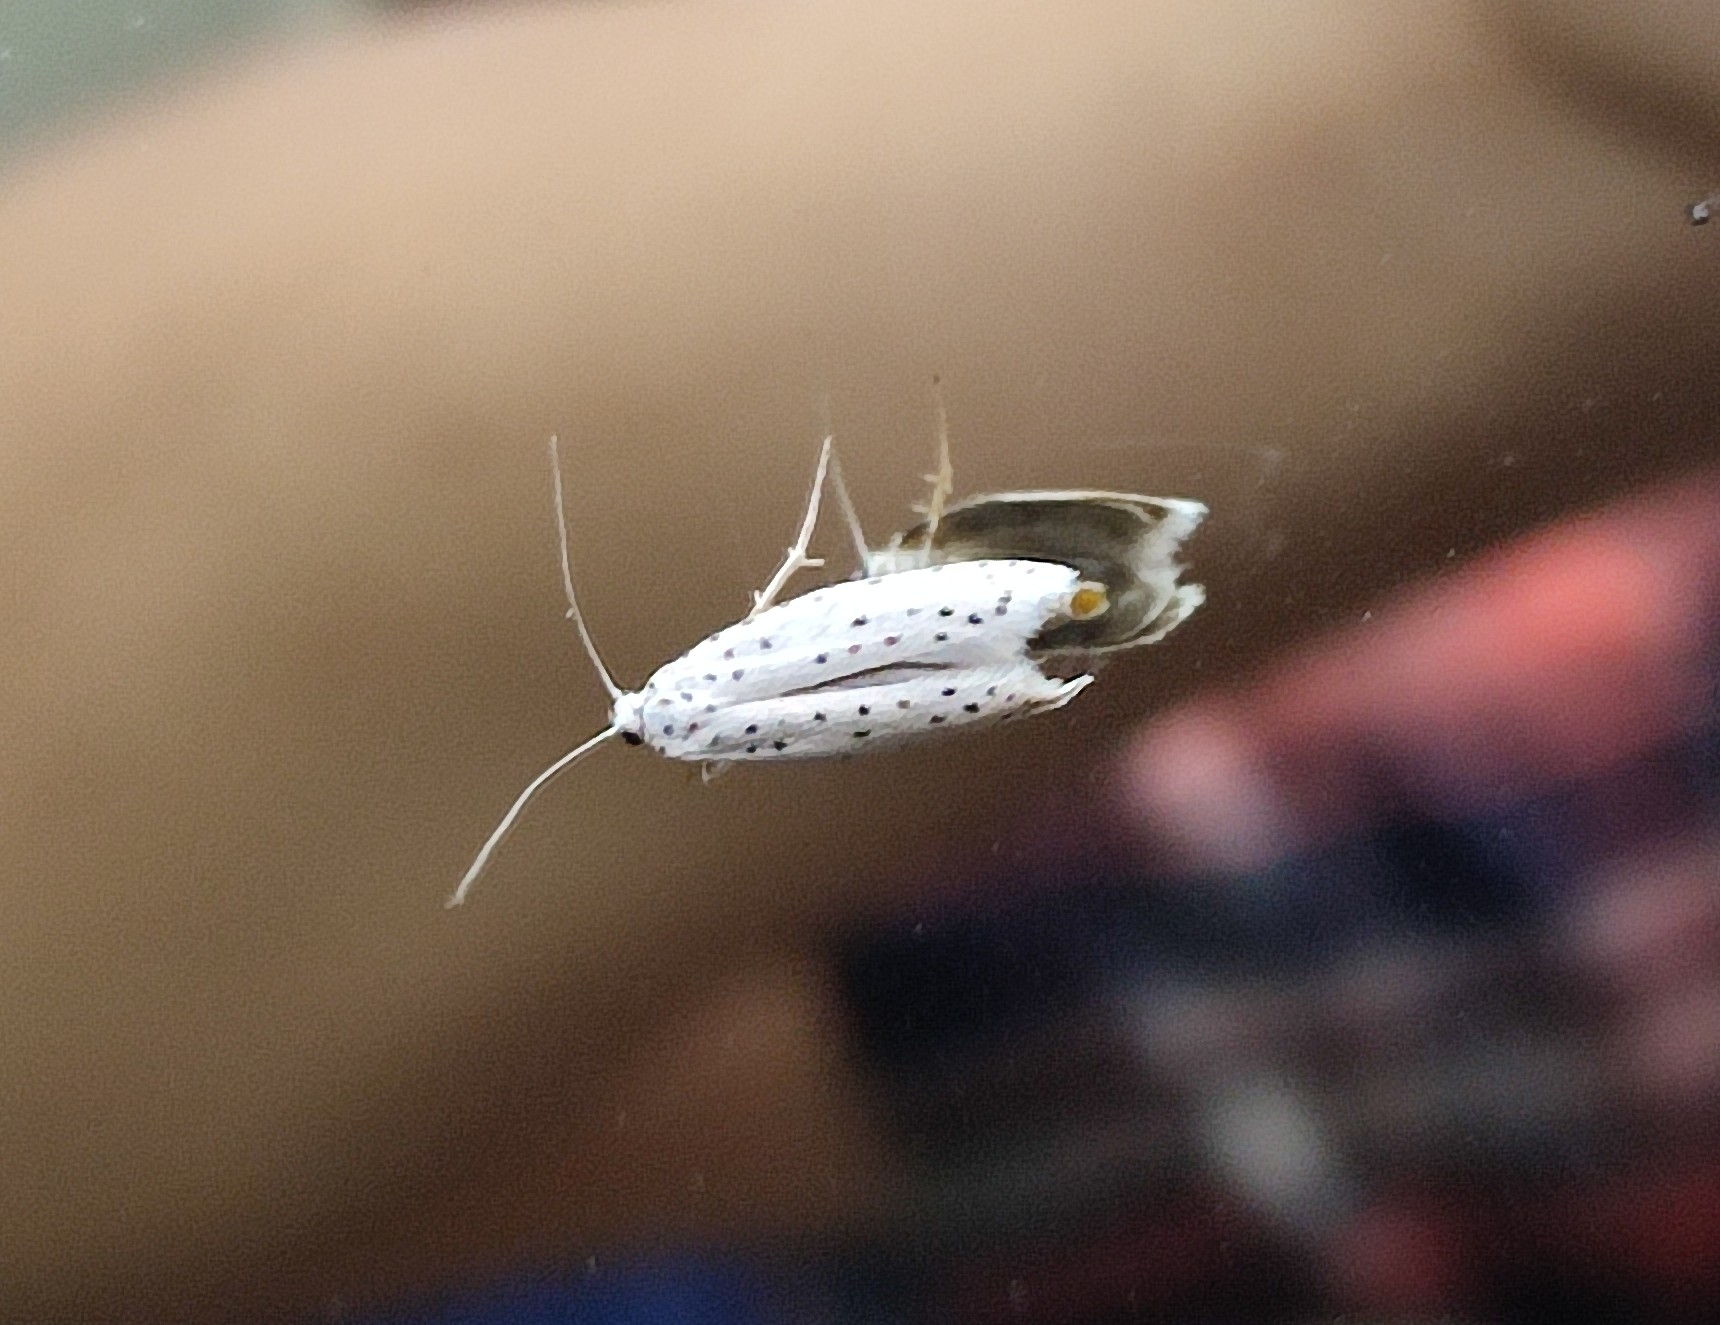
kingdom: Animalia
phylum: Arthropoda
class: Insecta
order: Lepidoptera
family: Yponomeutidae
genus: Yponomeuta
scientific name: Yponomeuta evonymella
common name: Bird-cherry ermine
